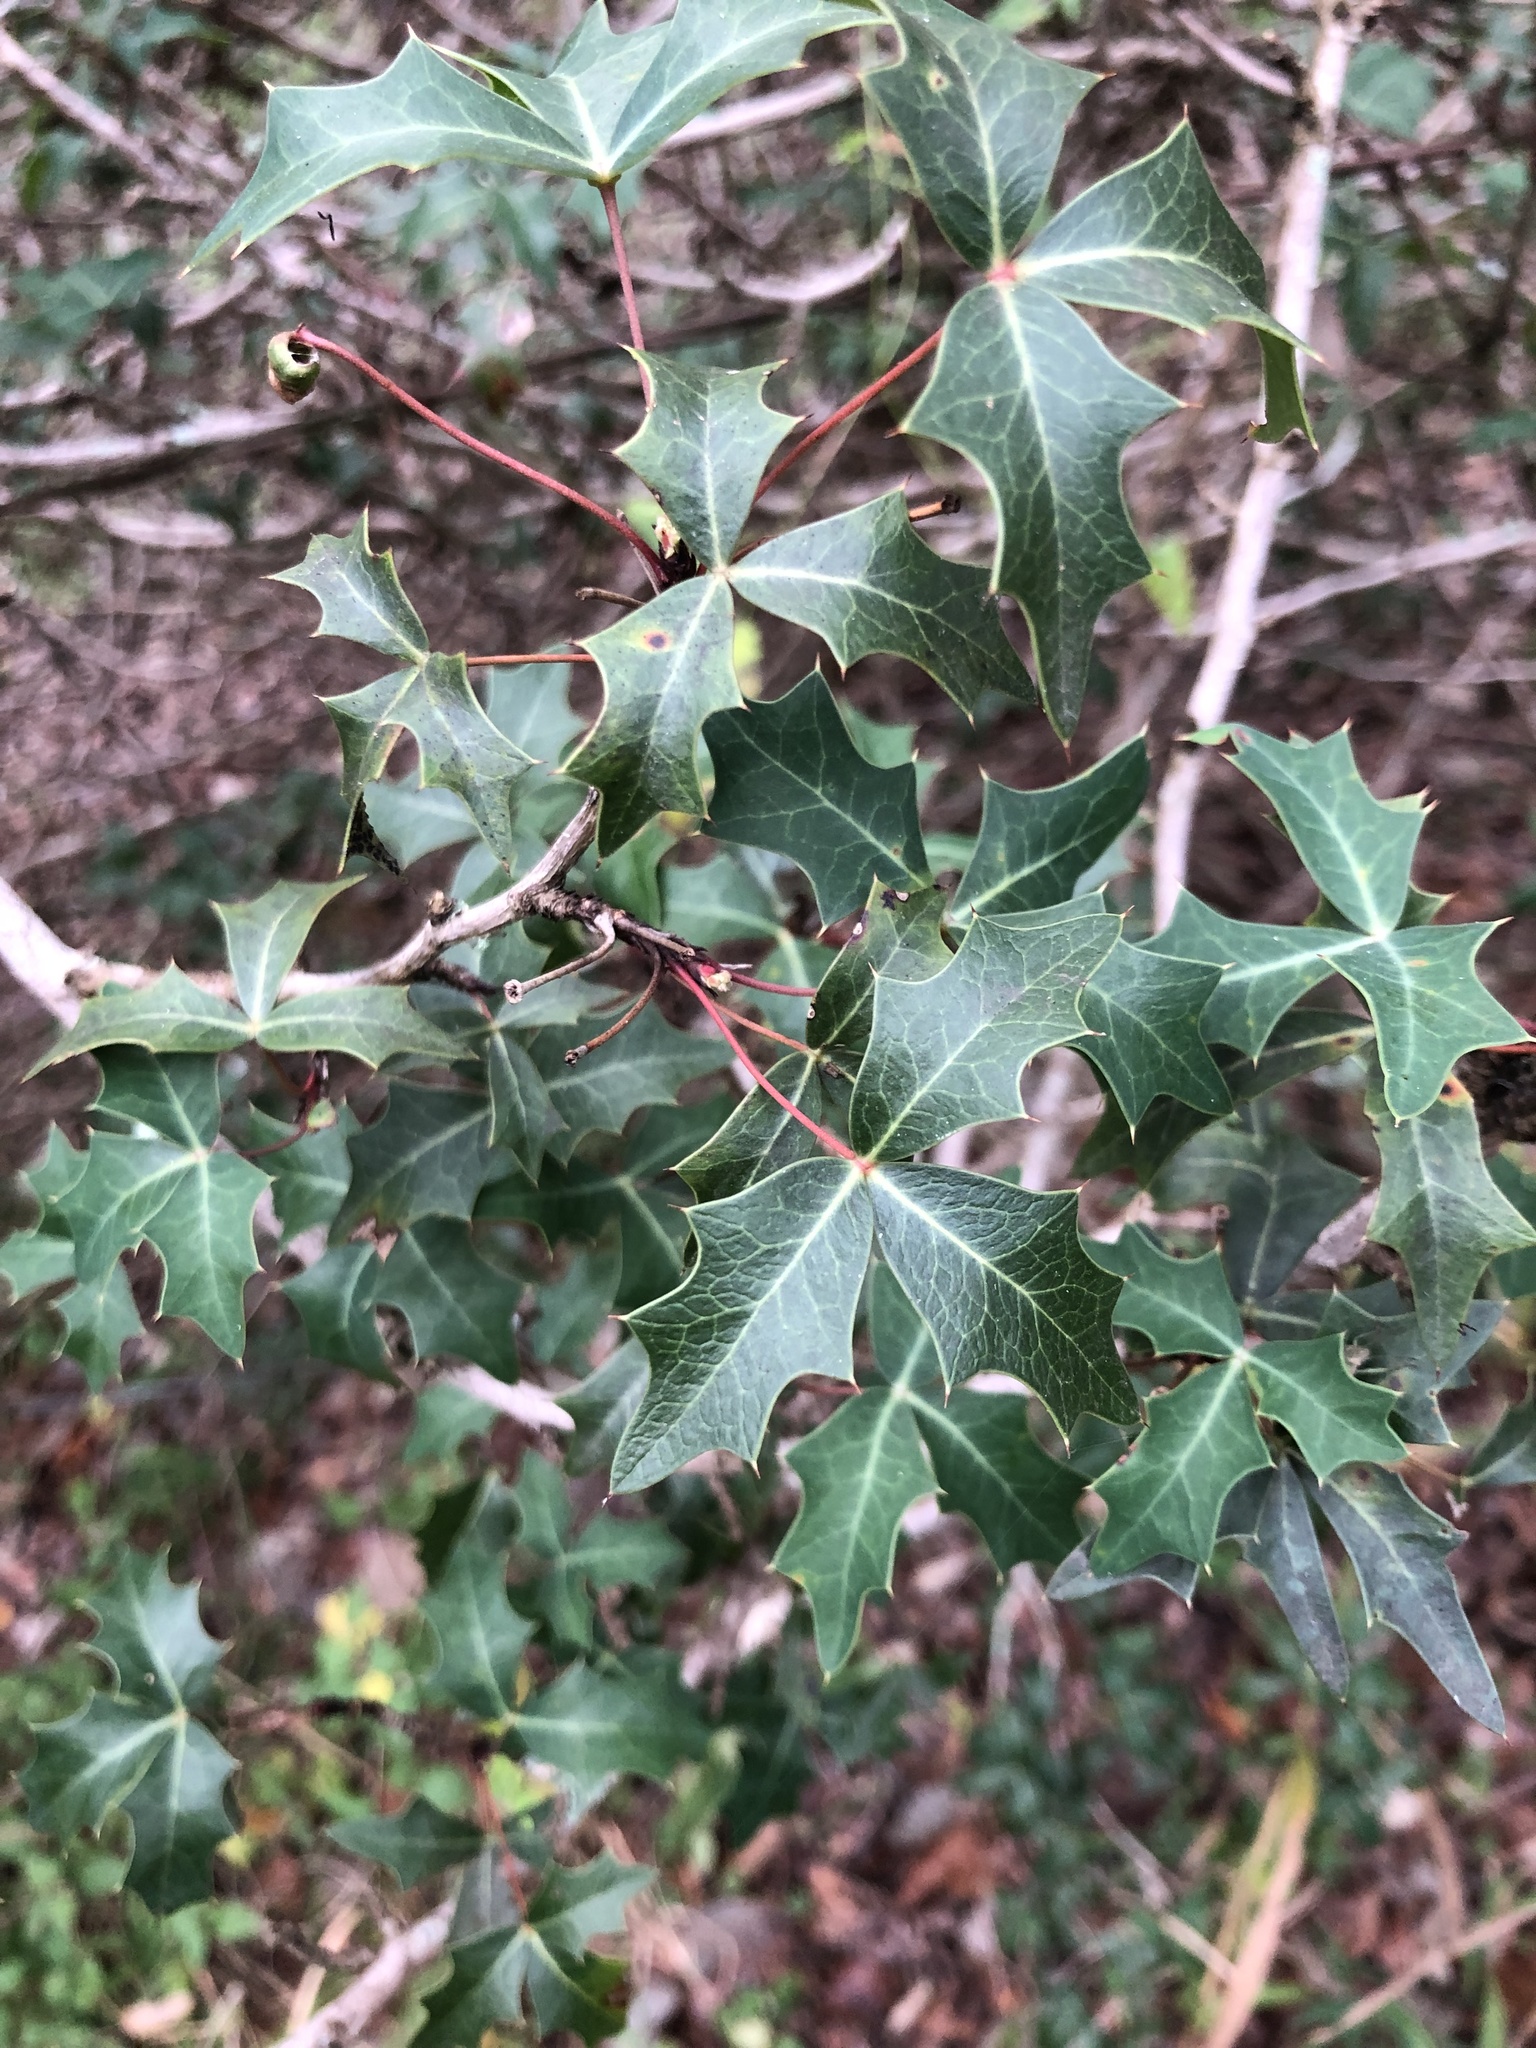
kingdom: Plantae
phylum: Tracheophyta
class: Magnoliopsida
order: Ranunculales
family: Berberidaceae
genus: Alloberberis
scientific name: Alloberberis trifoliolata
